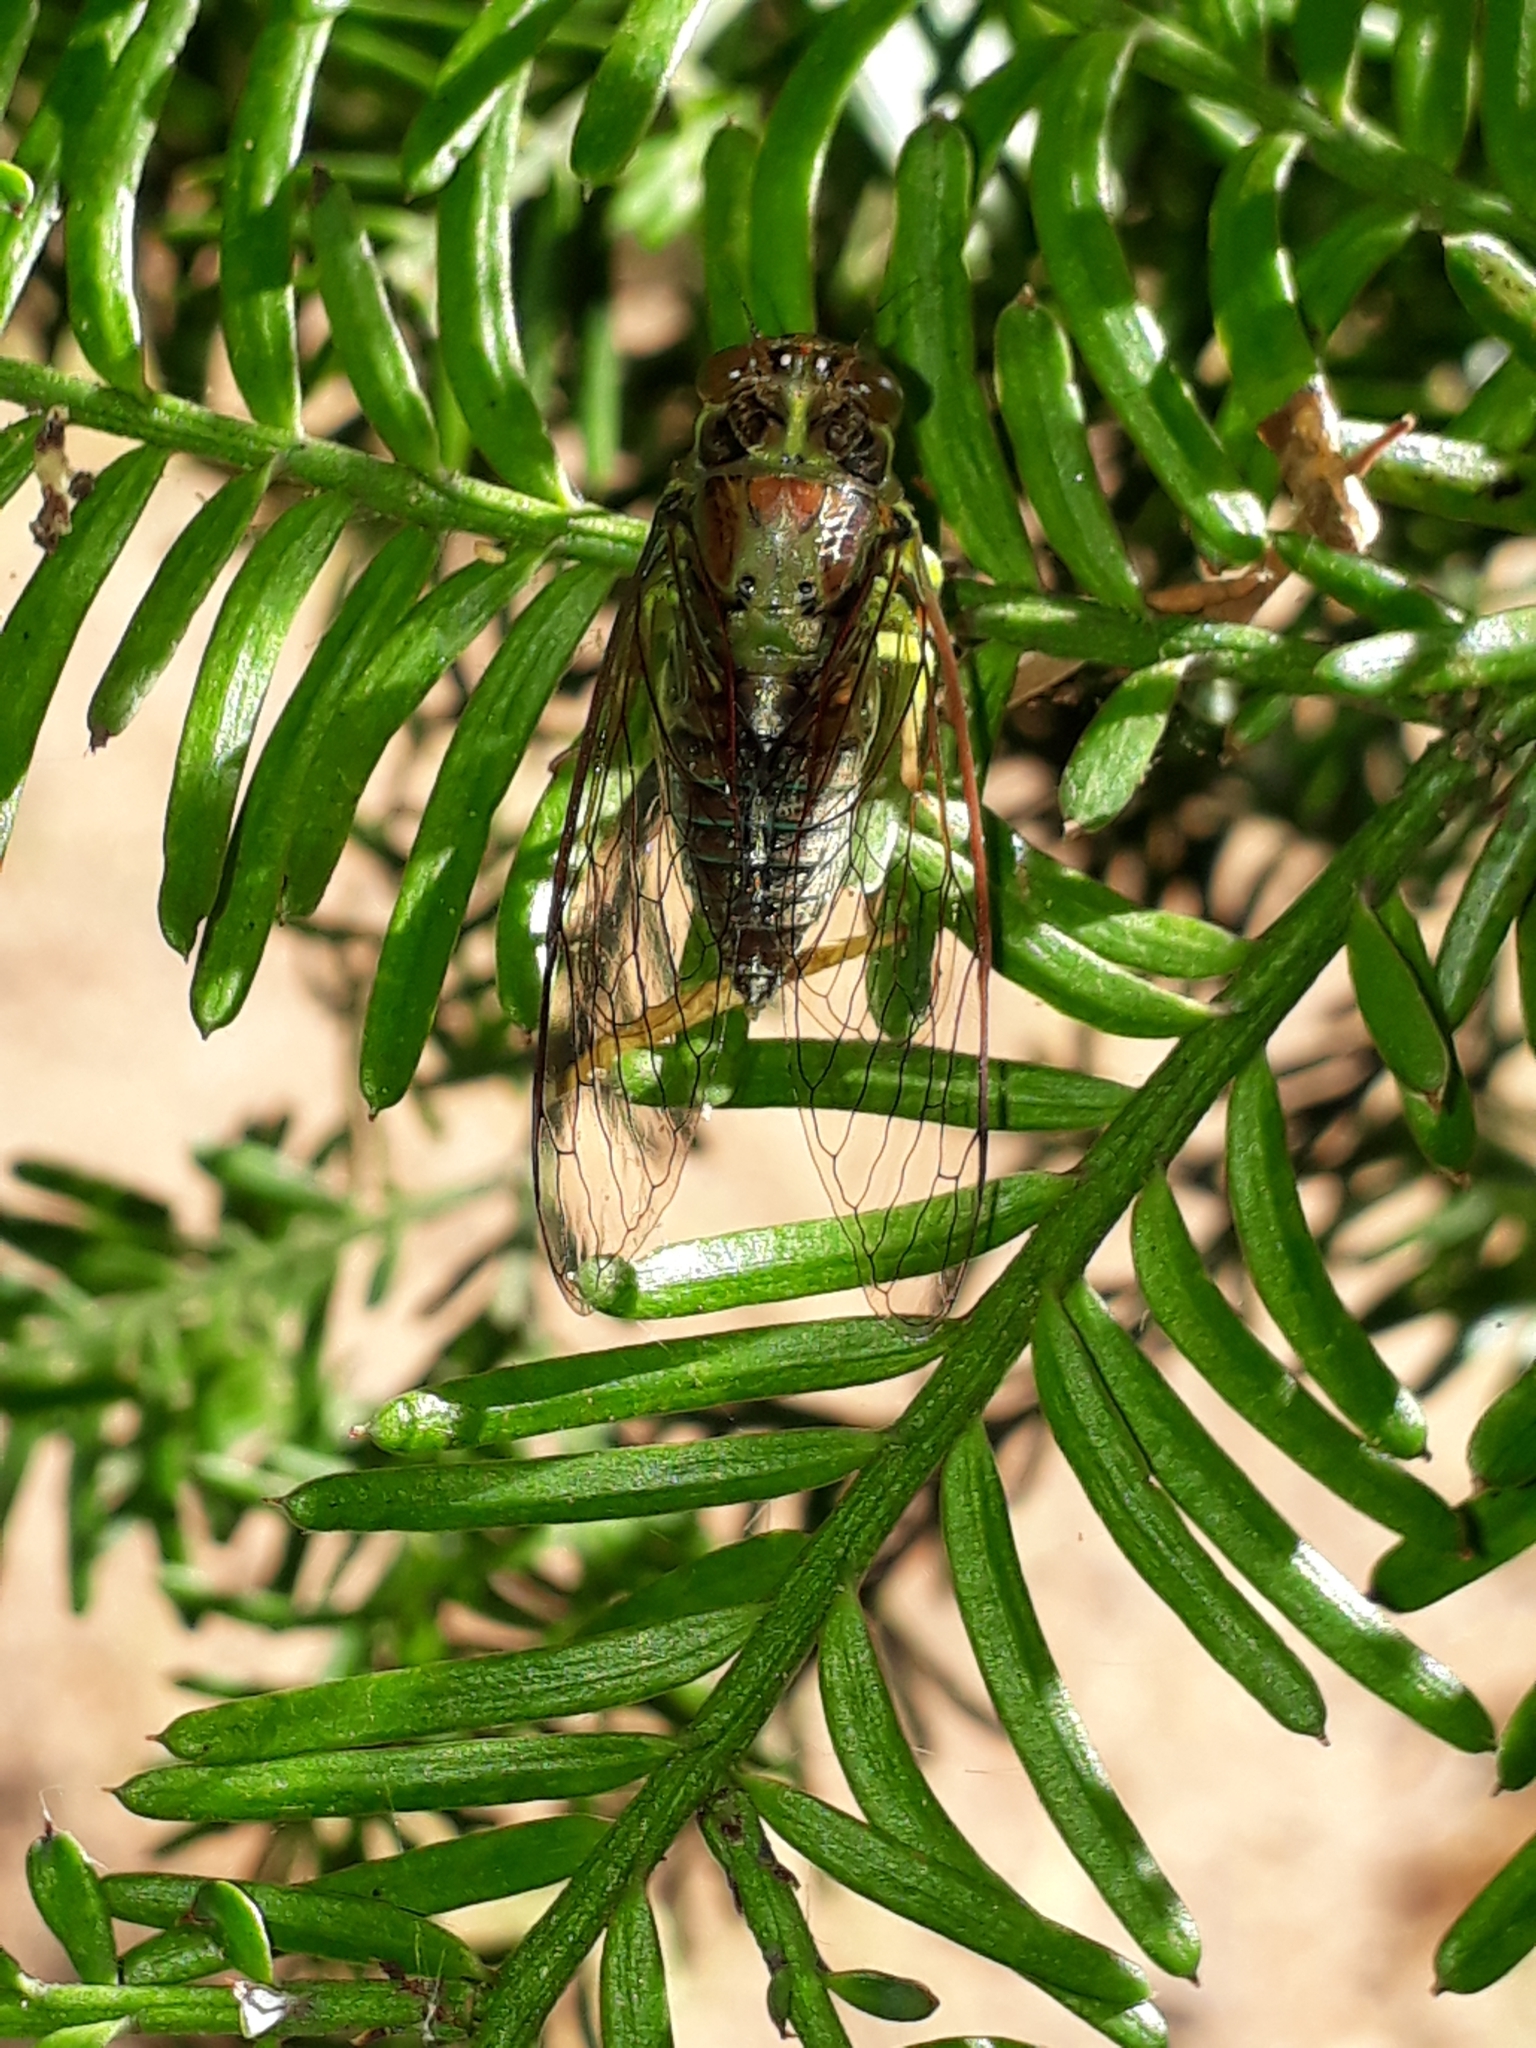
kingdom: Animalia
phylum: Arthropoda
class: Insecta
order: Hemiptera
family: Cicadidae
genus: Kikihia
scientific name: Kikihia scutellaris
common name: Lesser bronze cicada
